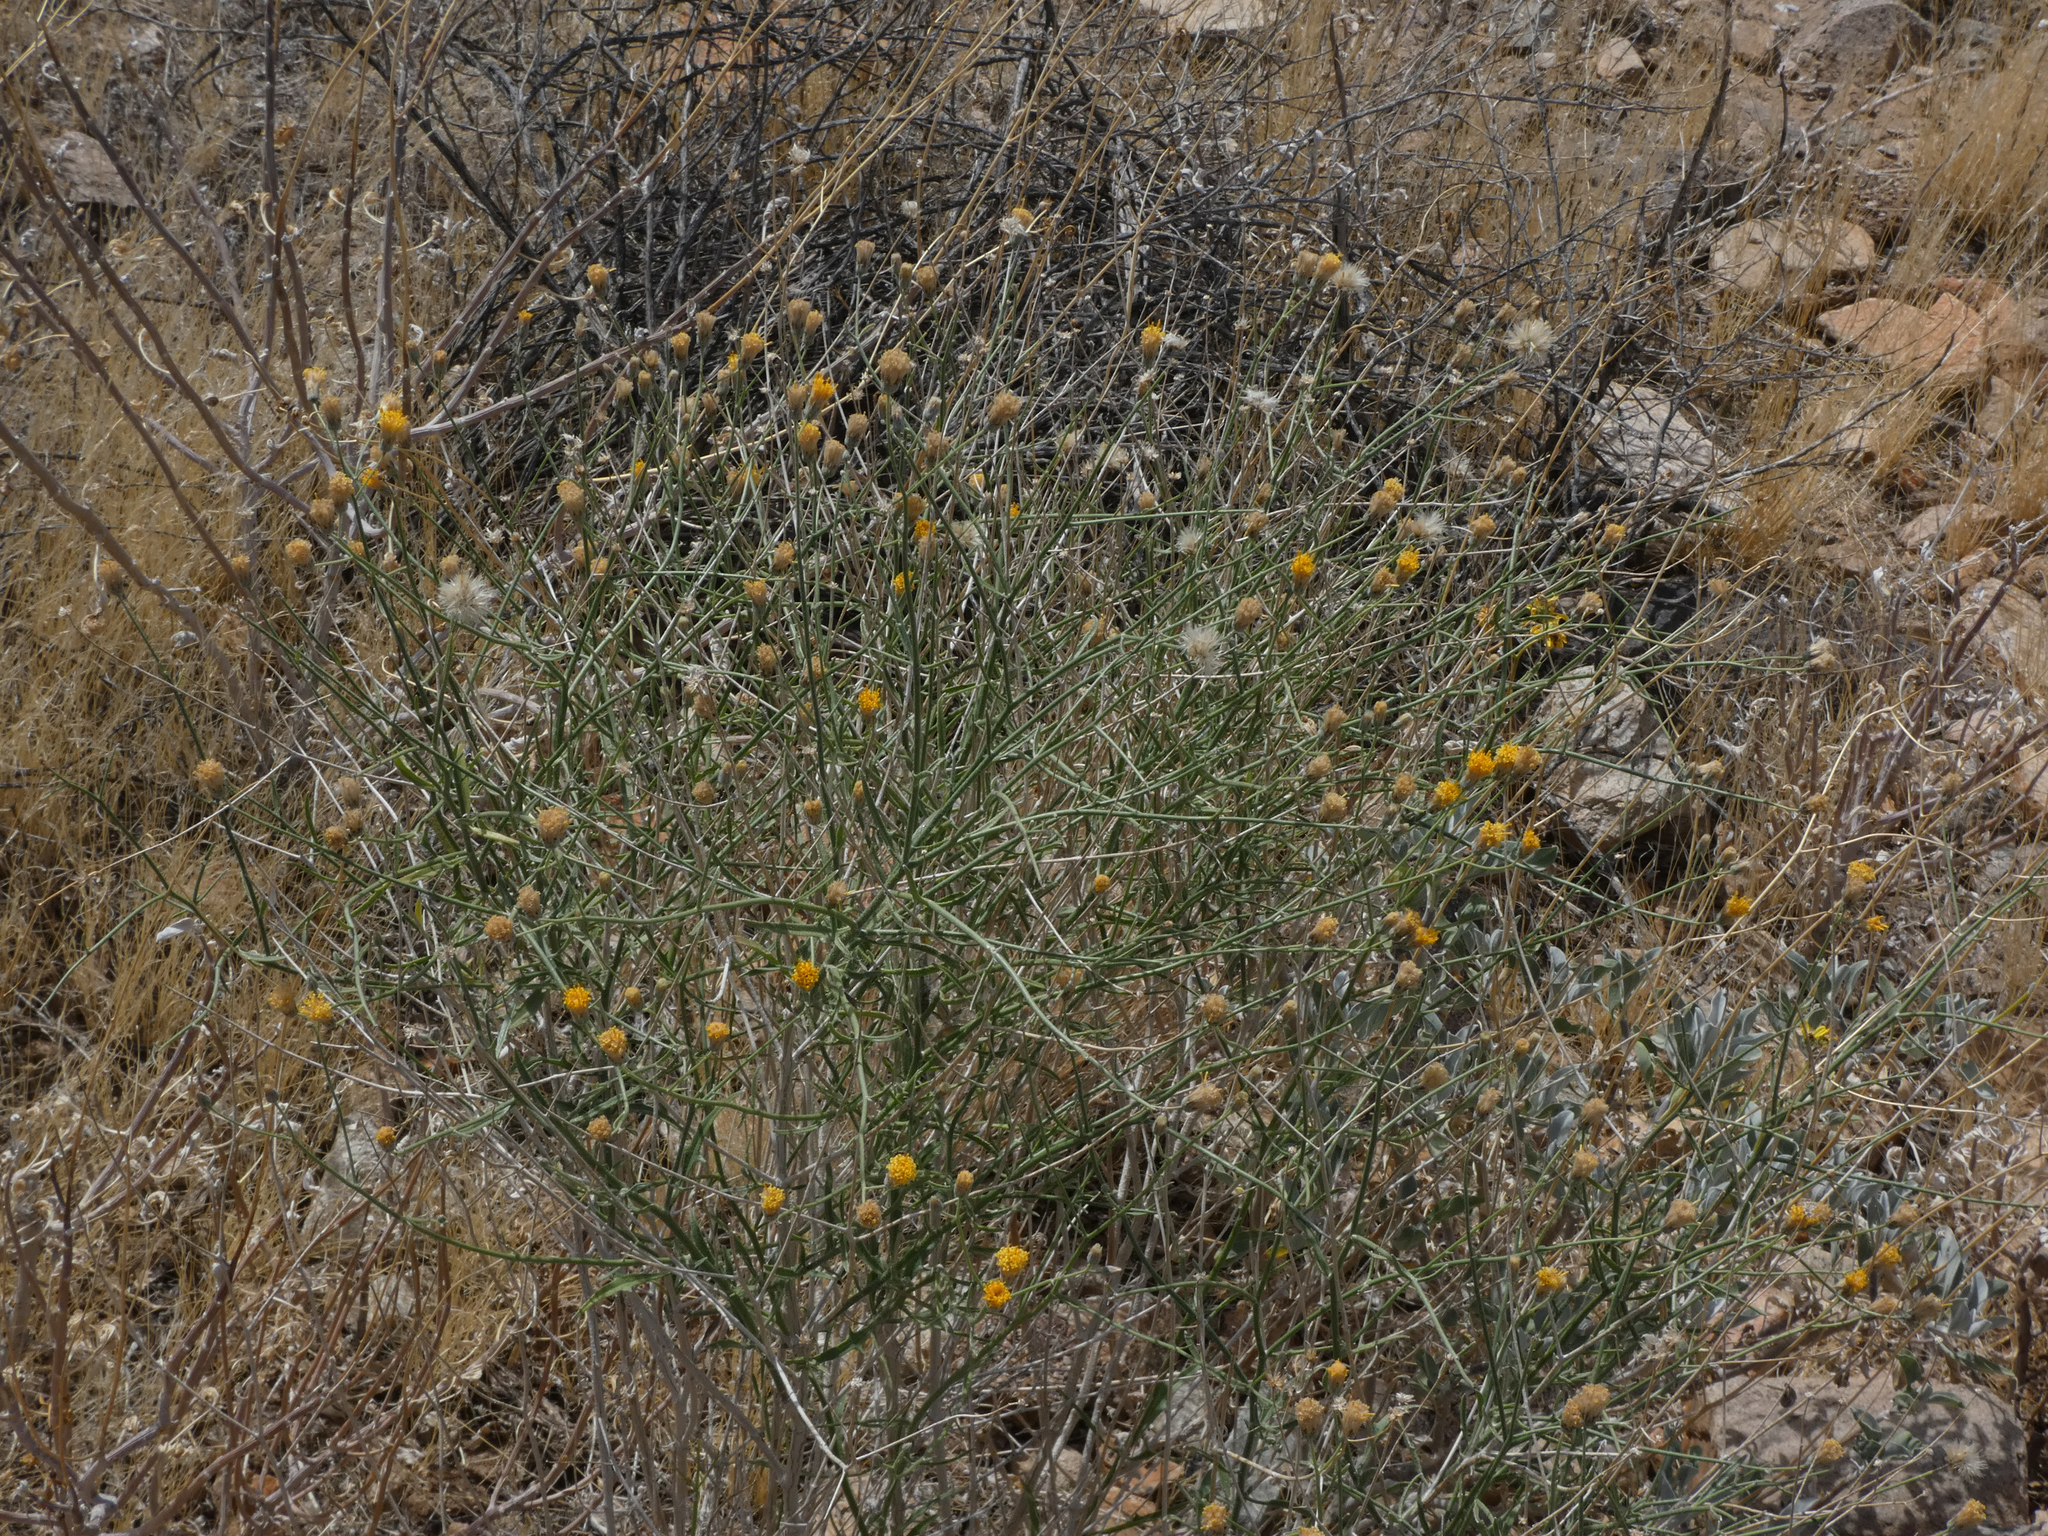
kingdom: Plantae
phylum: Tracheophyta
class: Magnoliopsida
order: Asterales
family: Asteraceae
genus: Bebbia
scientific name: Bebbia juncea
